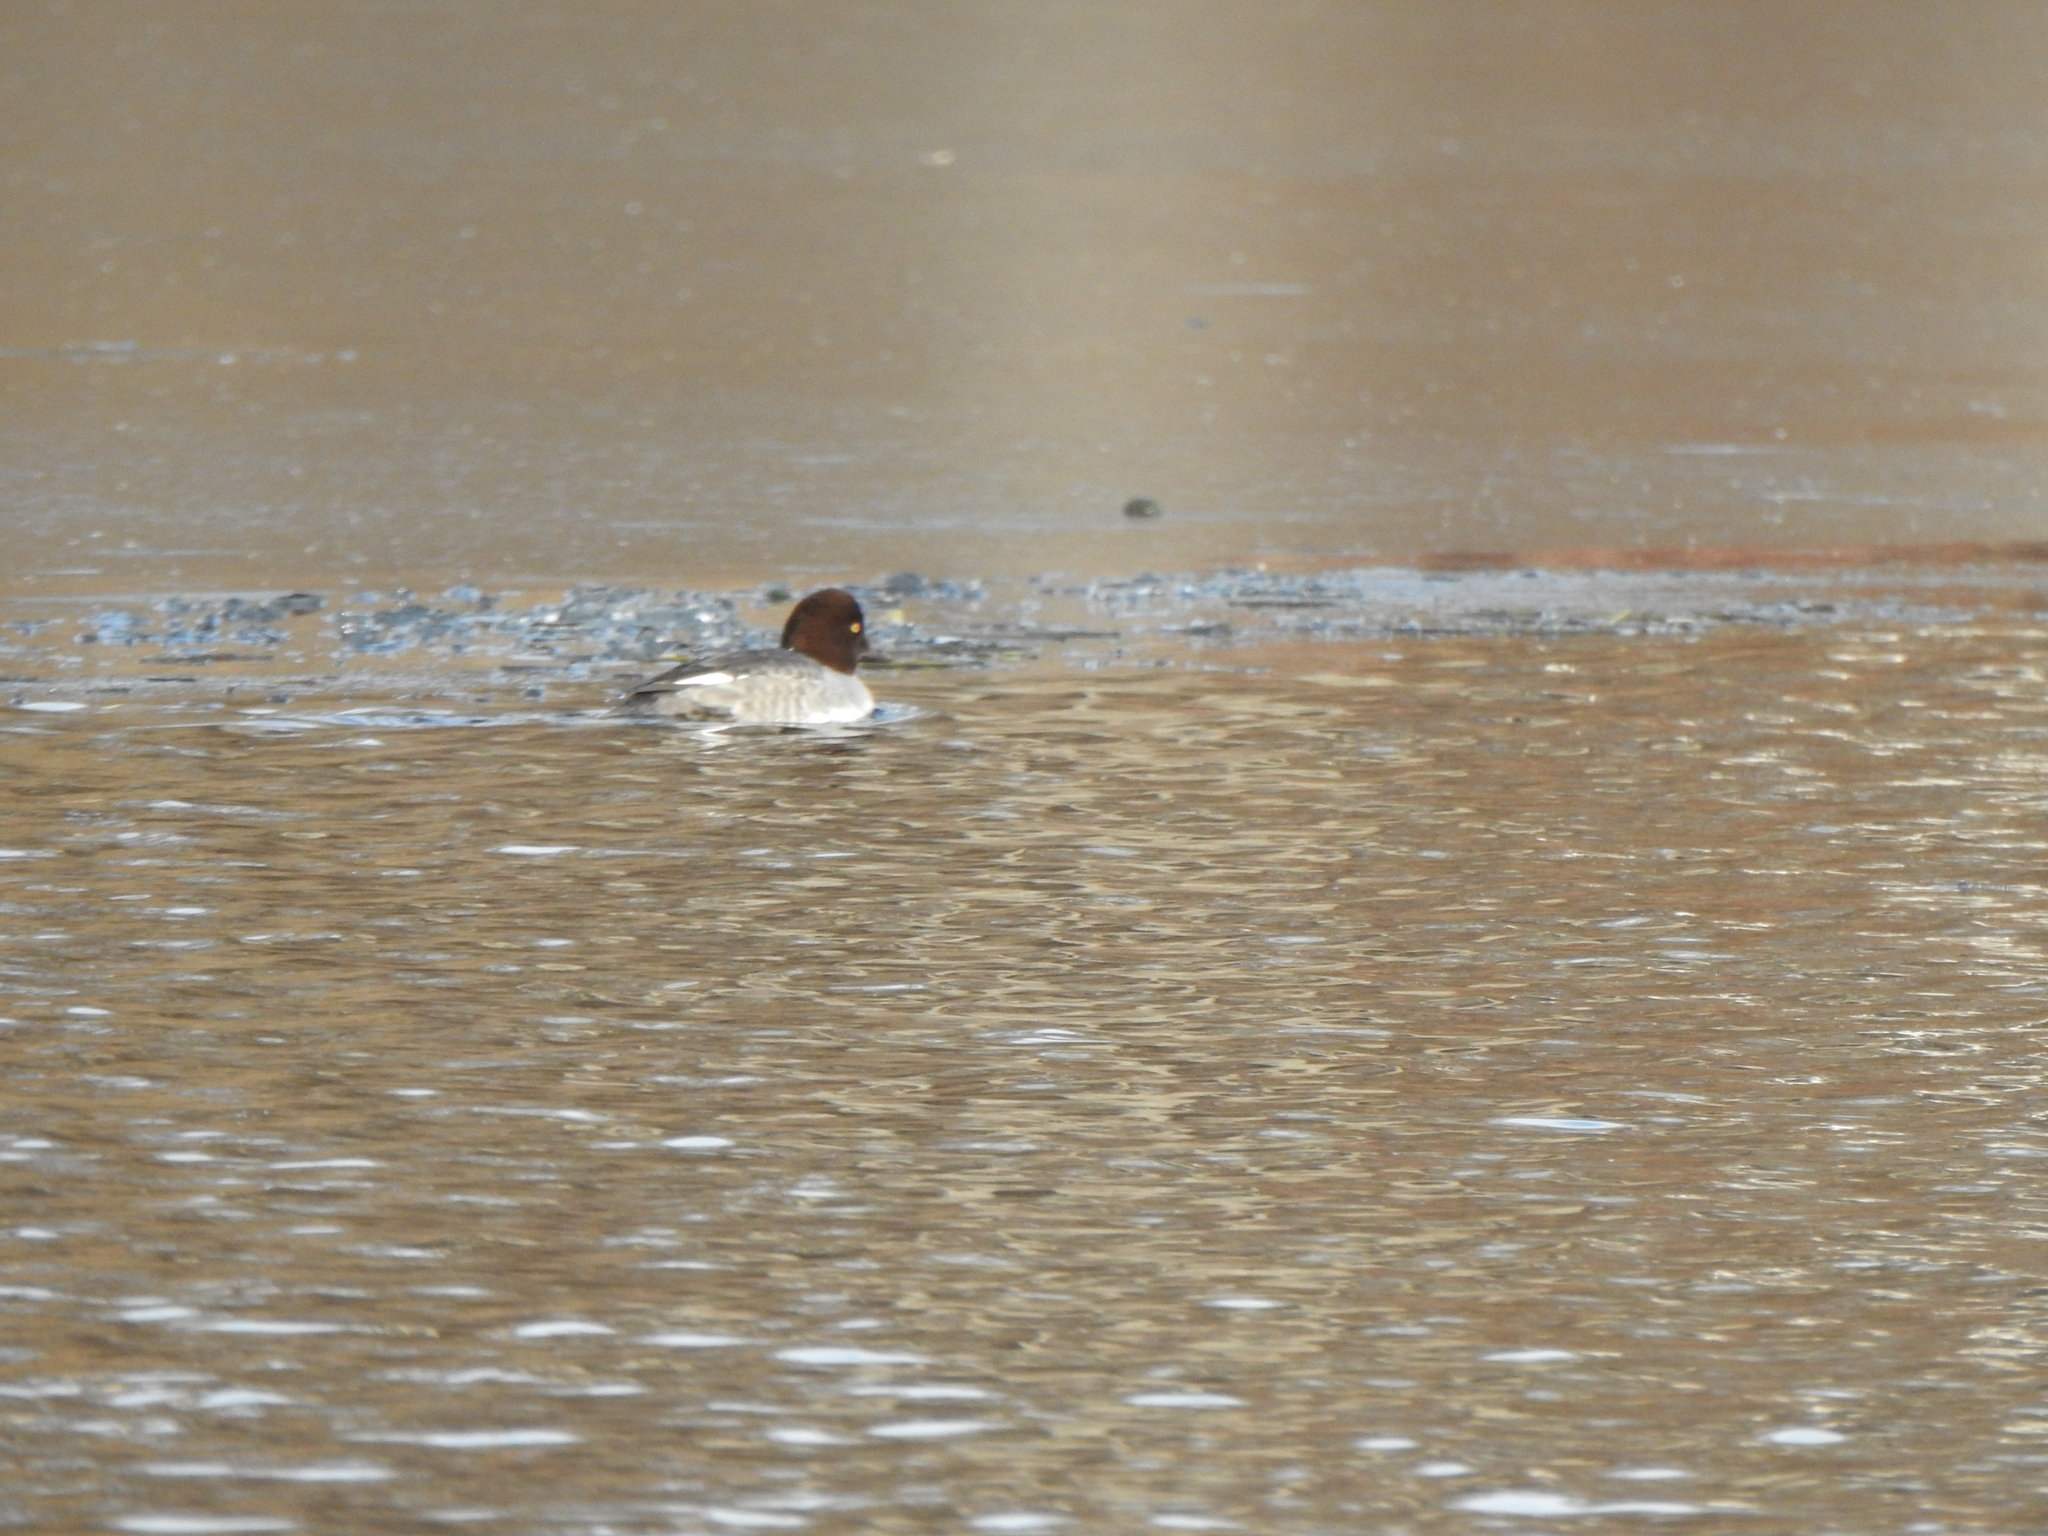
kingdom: Animalia
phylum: Chordata
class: Aves
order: Anseriformes
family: Anatidae
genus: Bucephala
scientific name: Bucephala clangula
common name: Common goldeneye
